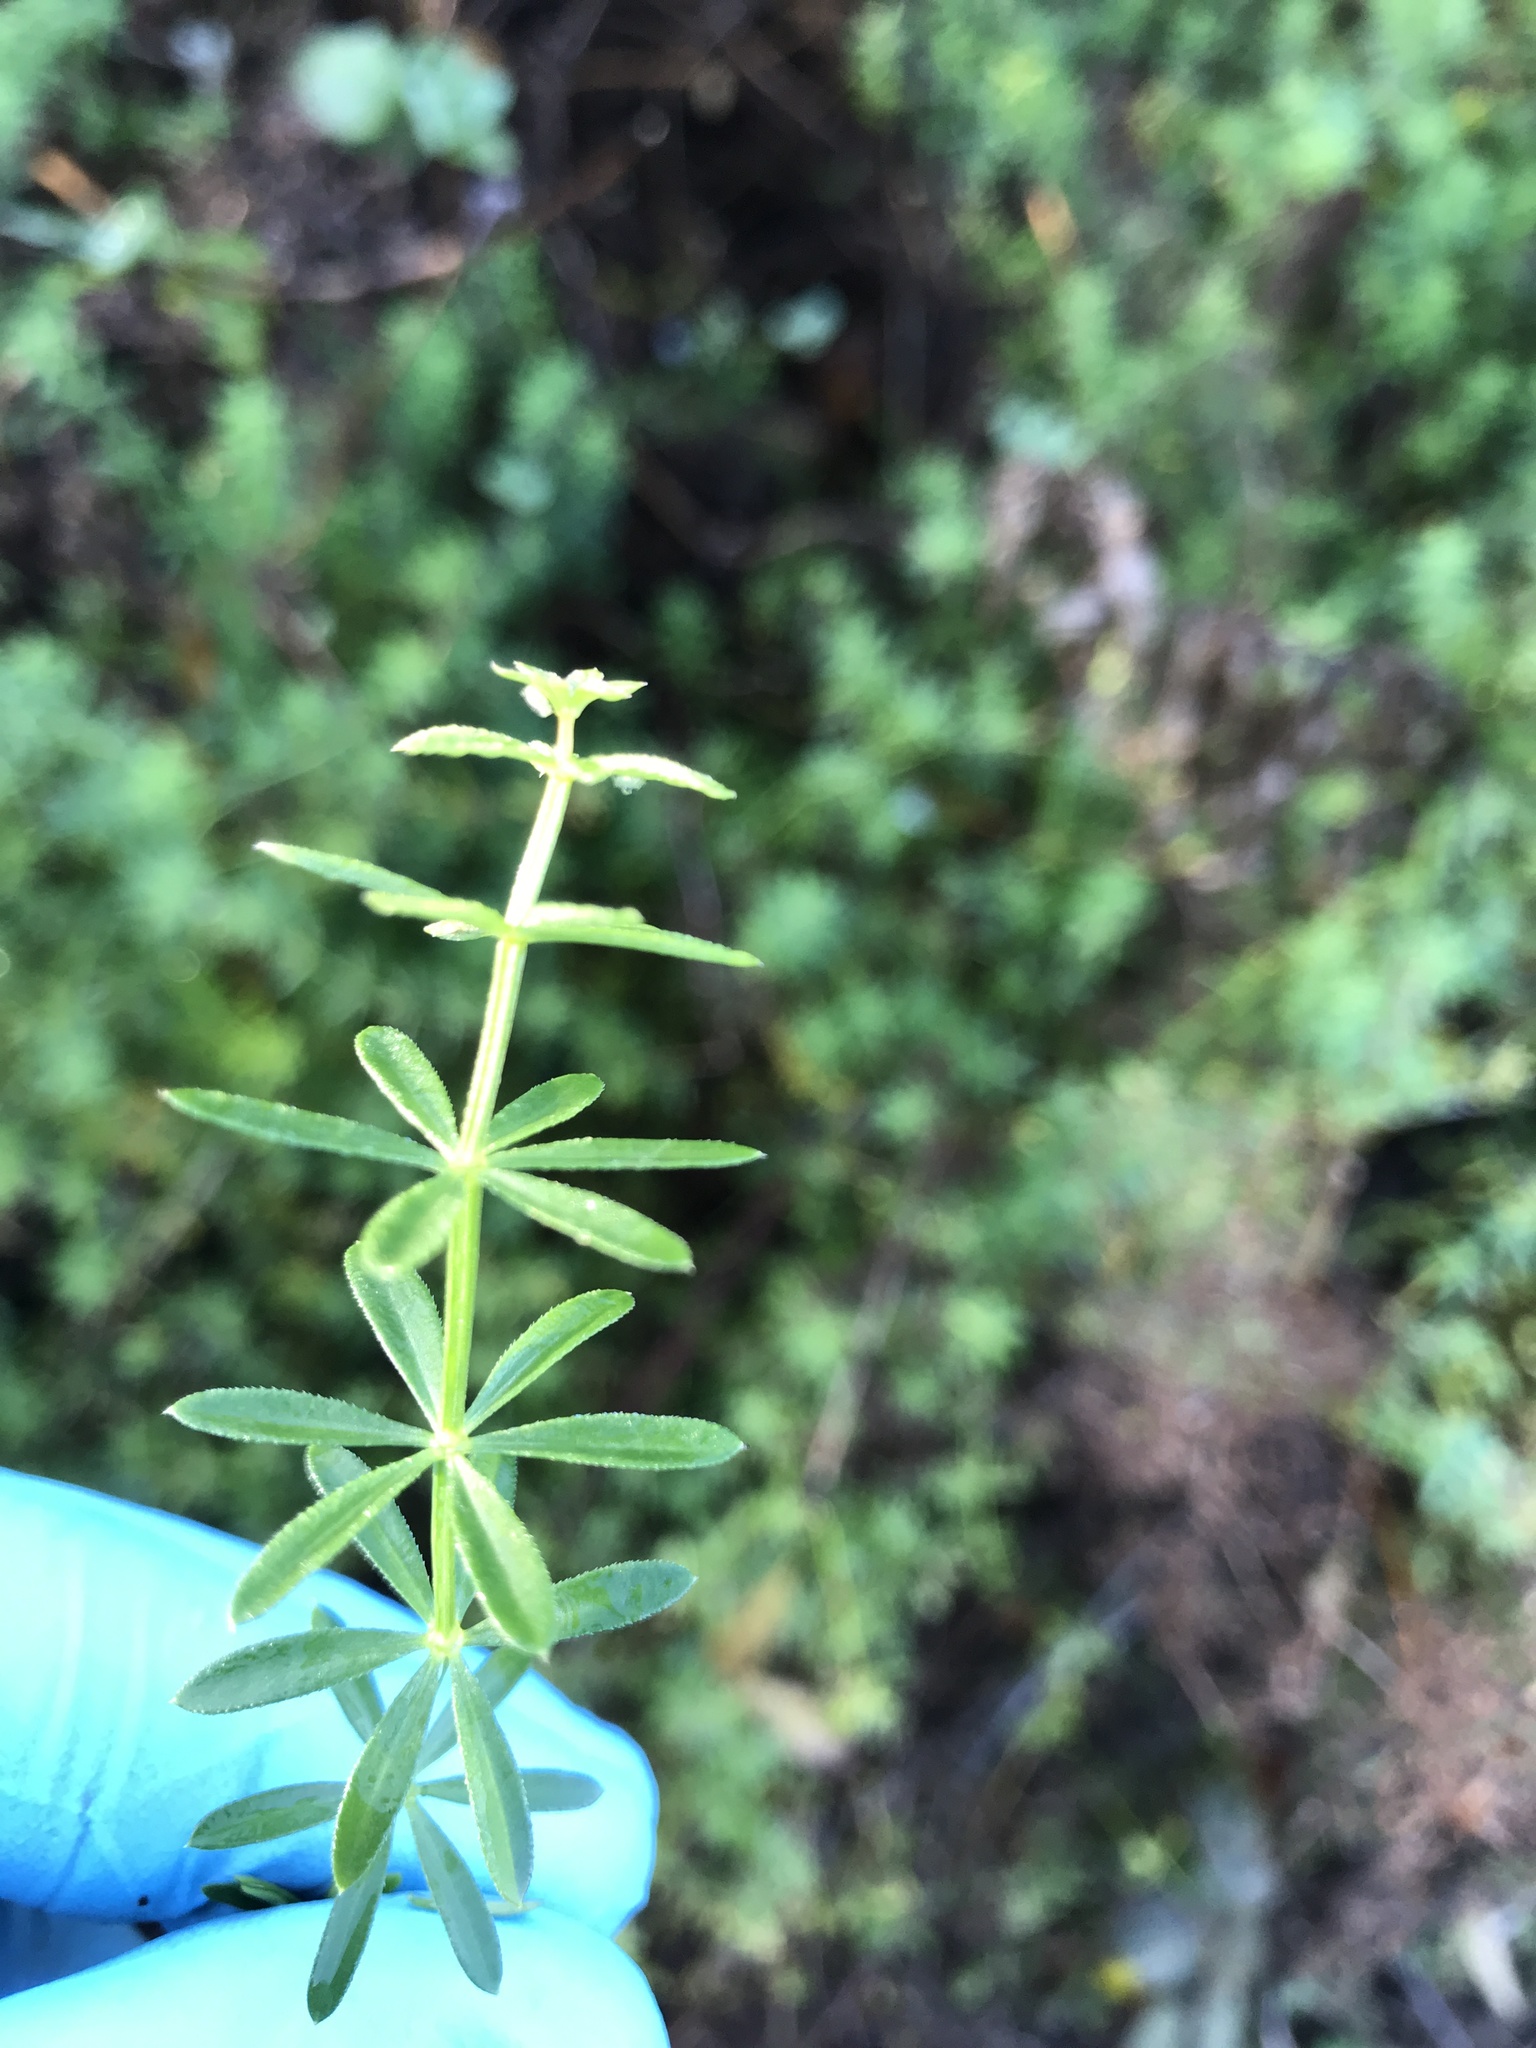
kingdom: Plantae
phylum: Tracheophyta
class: Magnoliopsida
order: Gentianales
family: Rubiaceae
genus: Galium
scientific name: Galium mollugo
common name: Hedge bedstraw
